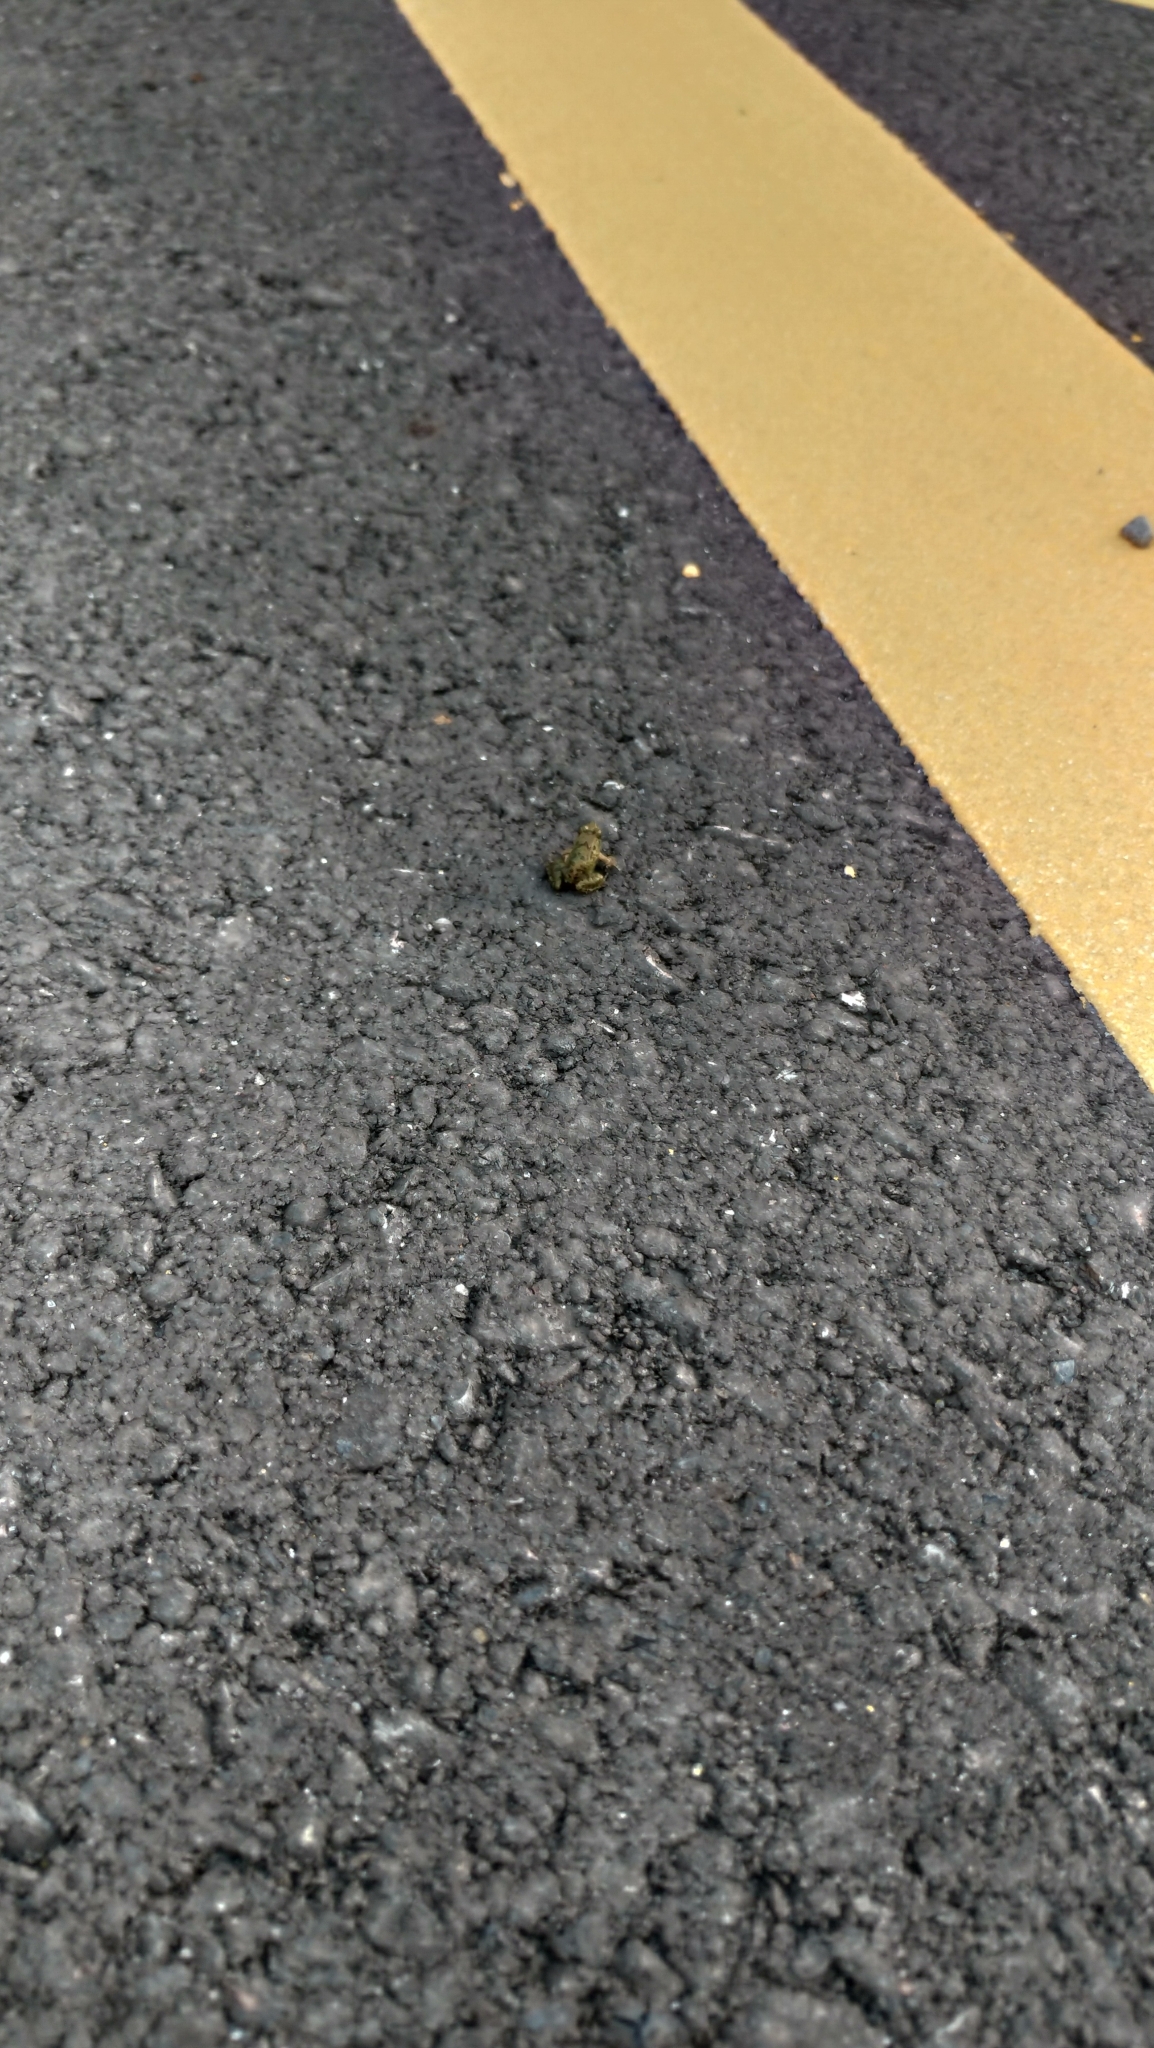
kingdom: Animalia
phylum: Chordata
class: Amphibia
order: Anura
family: Dicroglossidae
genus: Fejervarya
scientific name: Fejervarya limnocharis
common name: Asian grass frog/common pond frog/field frog/grass frog/indian rice frog
